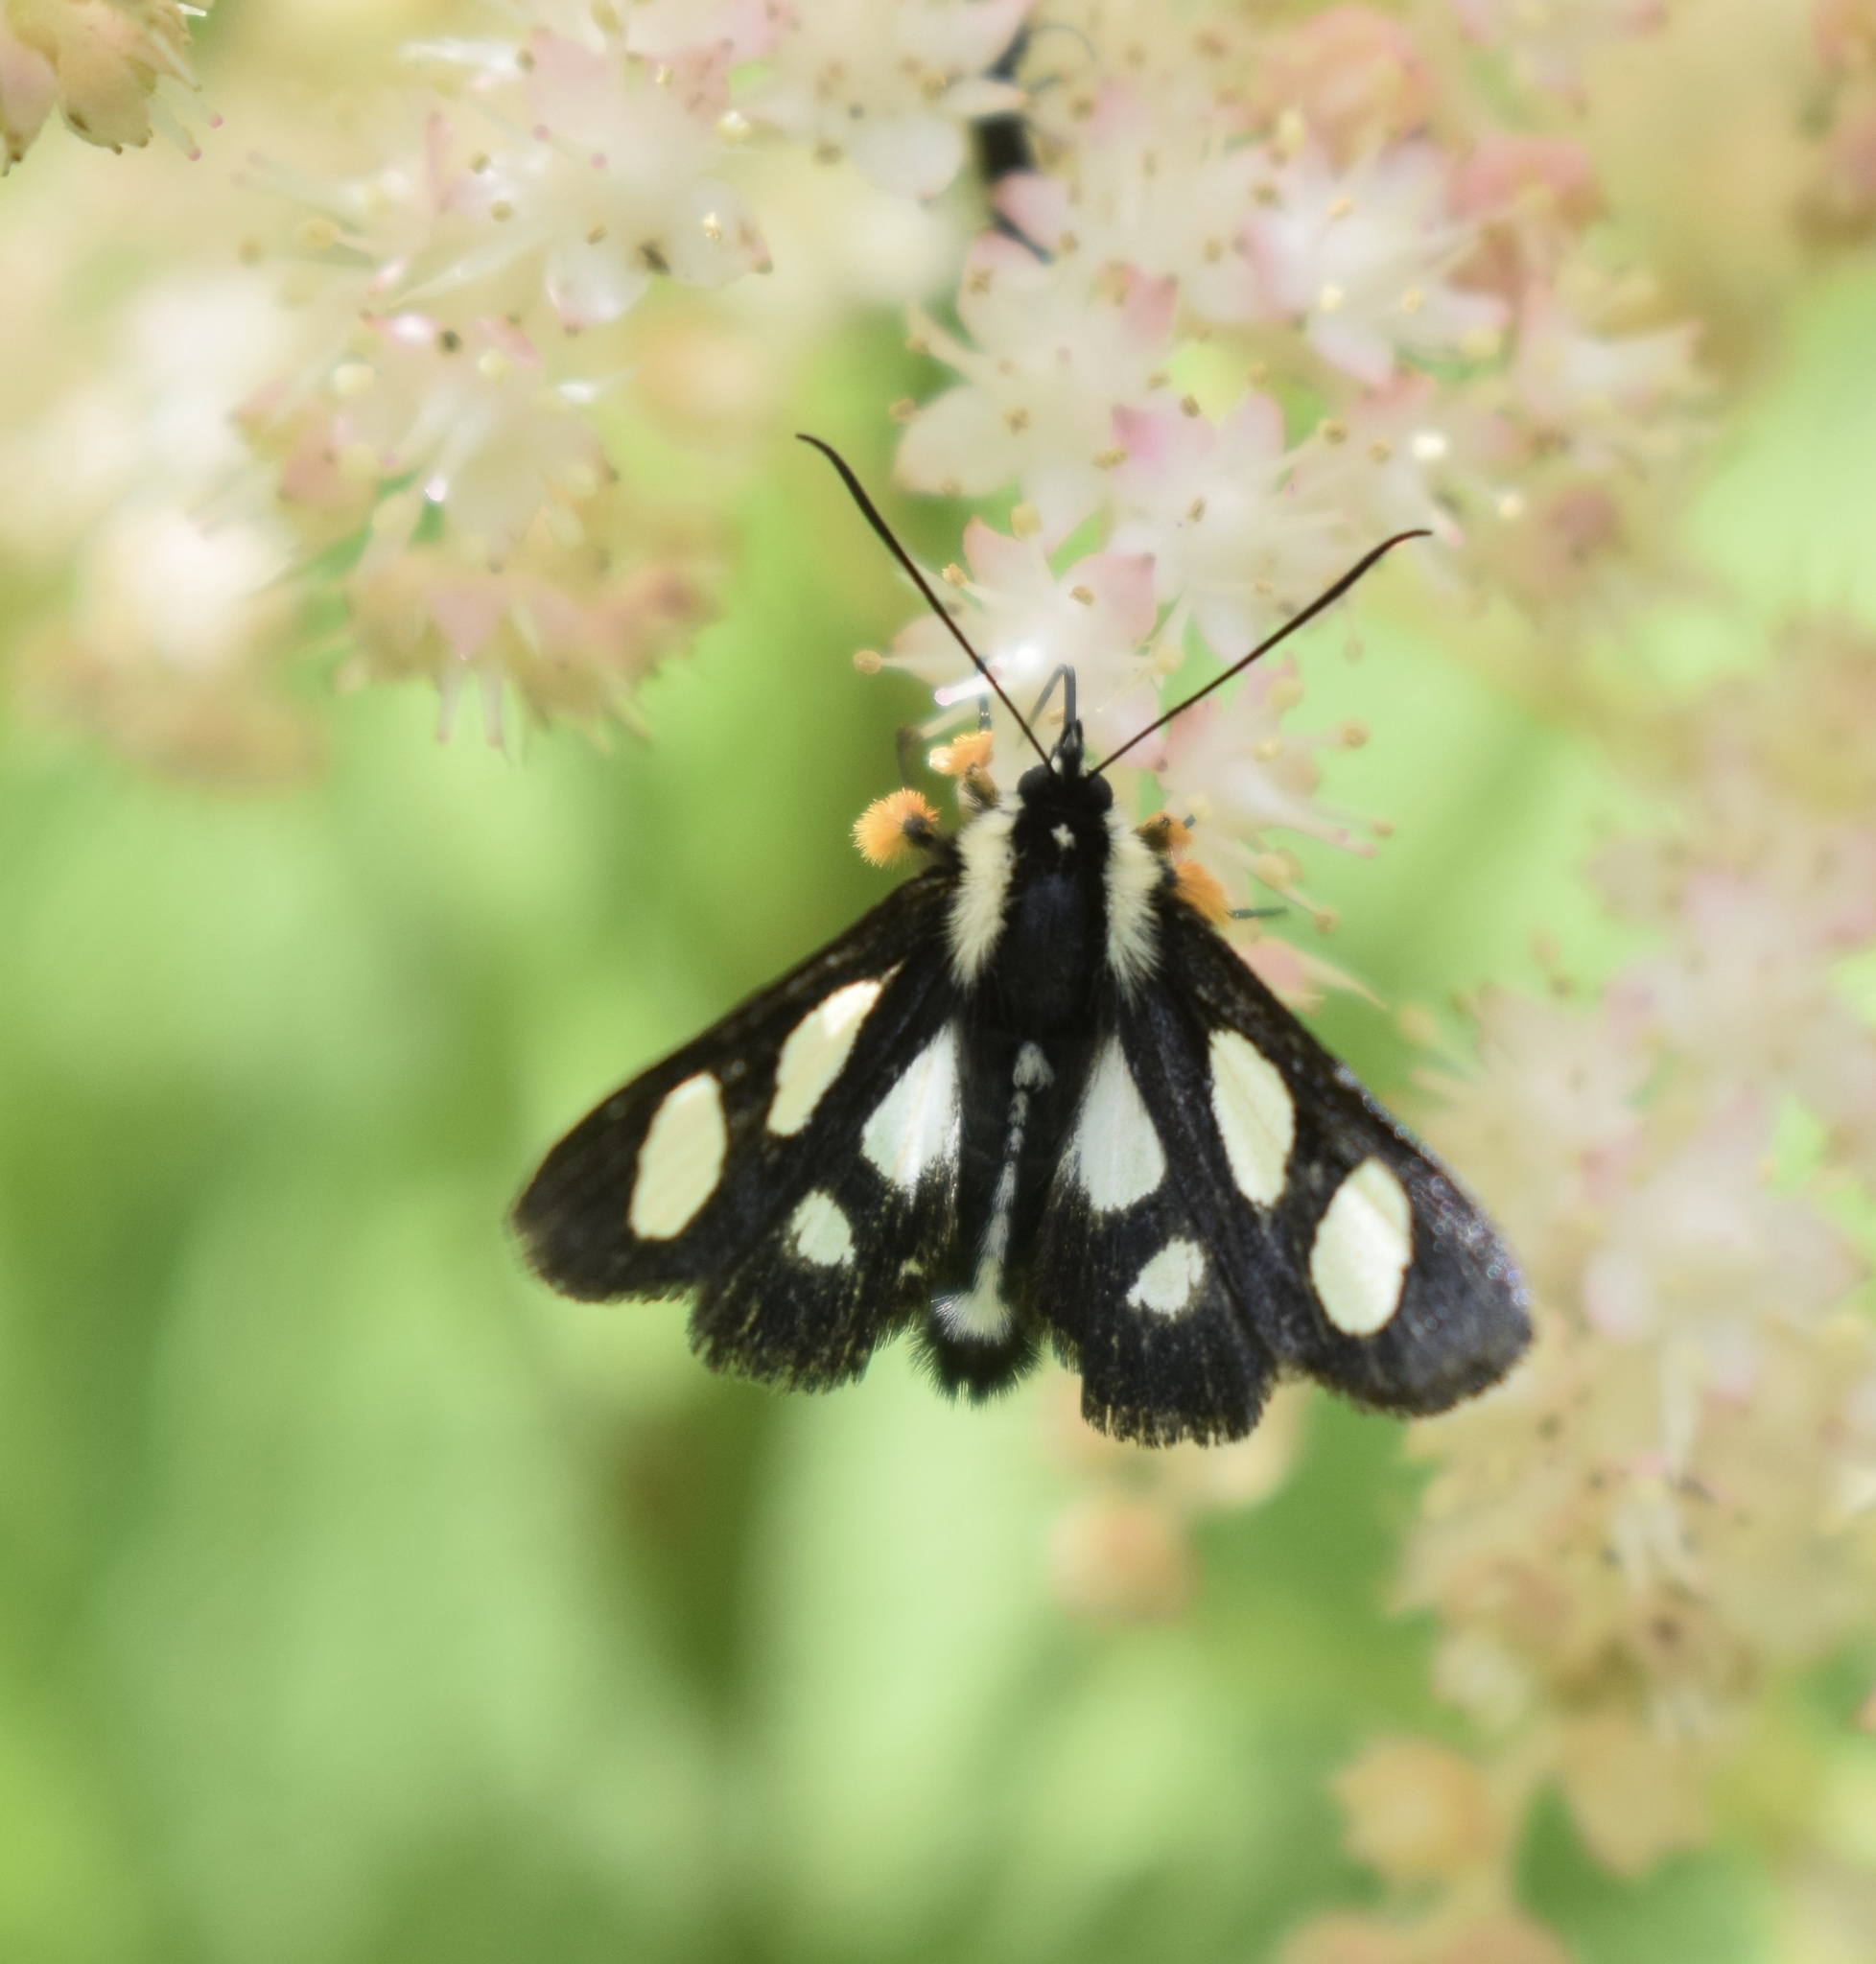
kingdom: Animalia
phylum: Arthropoda
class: Insecta
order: Lepidoptera
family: Noctuidae
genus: Alypia
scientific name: Alypia octomaculata
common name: Eight-spotted forester
